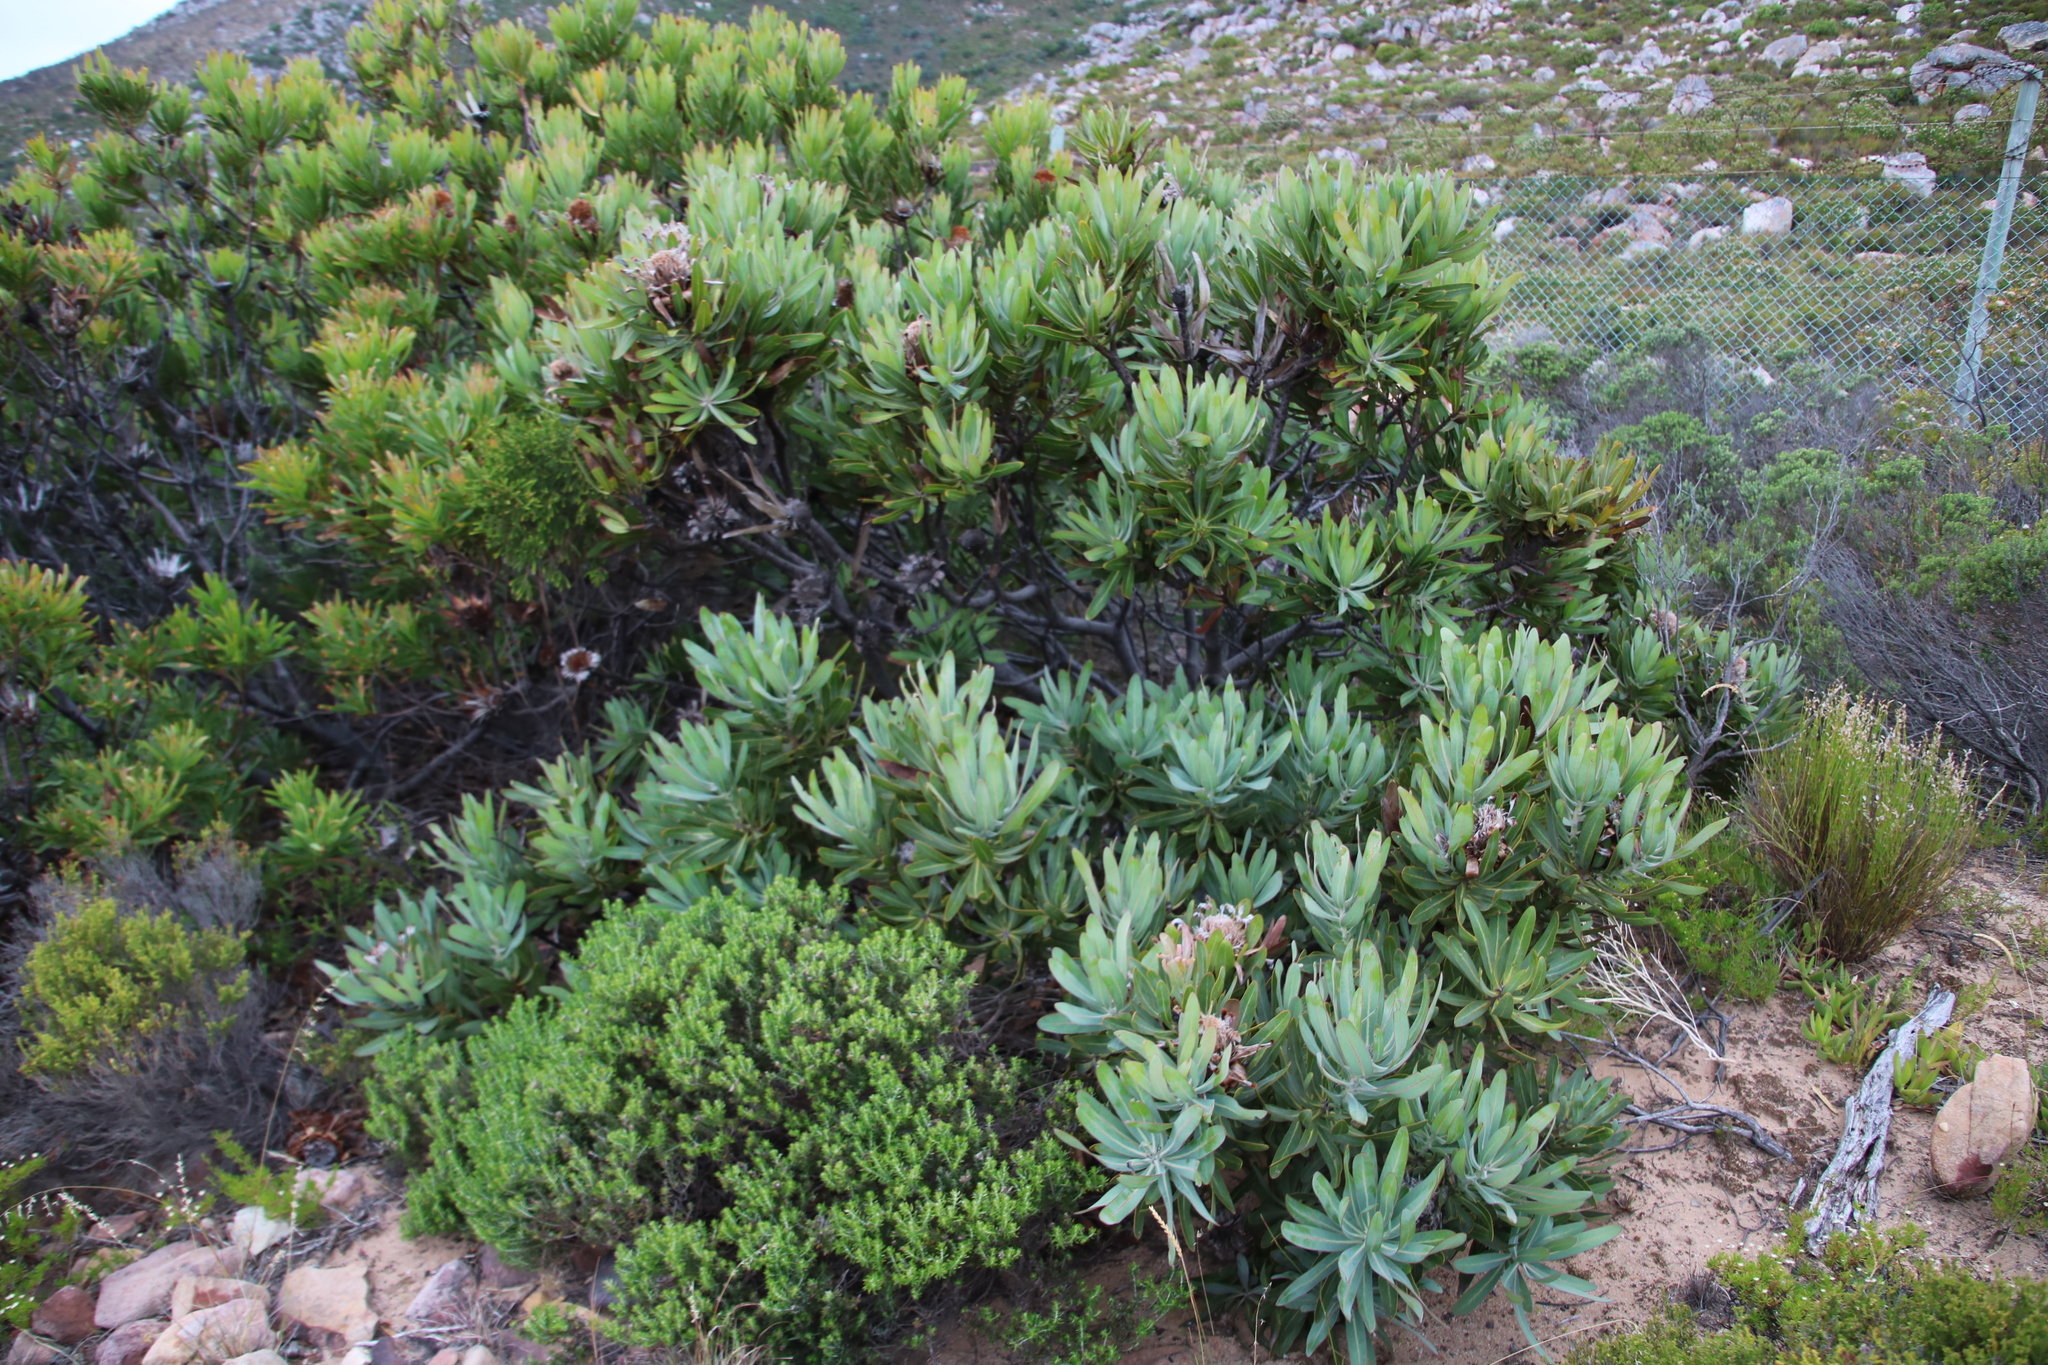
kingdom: Plantae
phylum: Tracheophyta
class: Magnoliopsida
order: Proteales
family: Proteaceae
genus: Protea
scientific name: Protea neriifolia
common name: Blue sugarbush
